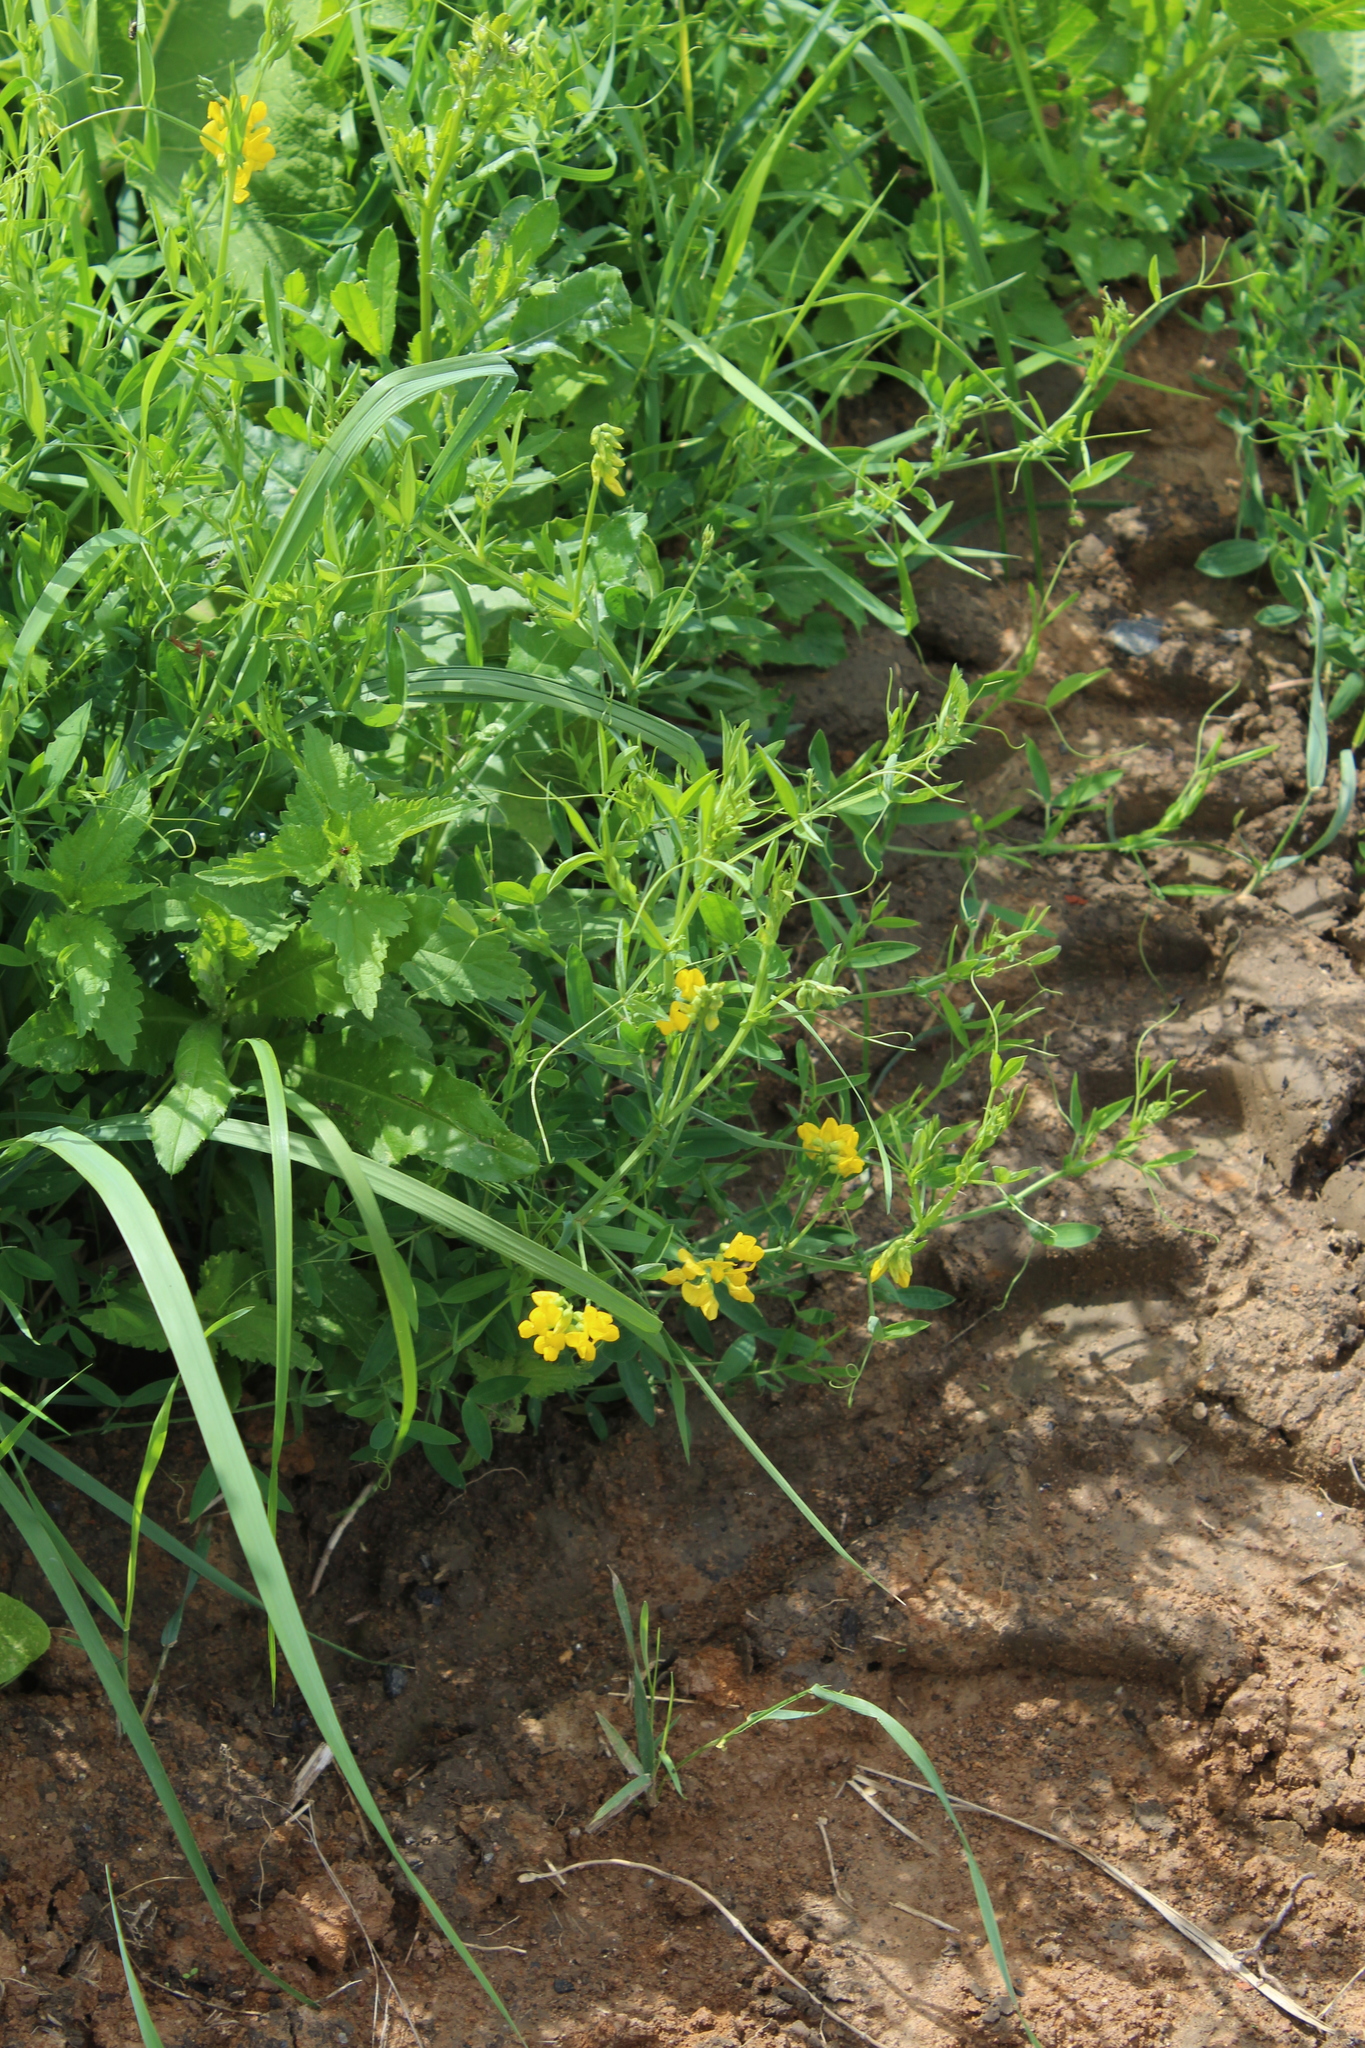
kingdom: Plantae
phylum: Tracheophyta
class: Magnoliopsida
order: Fabales
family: Fabaceae
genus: Lathyrus
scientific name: Lathyrus pratensis
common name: Meadow vetchling
